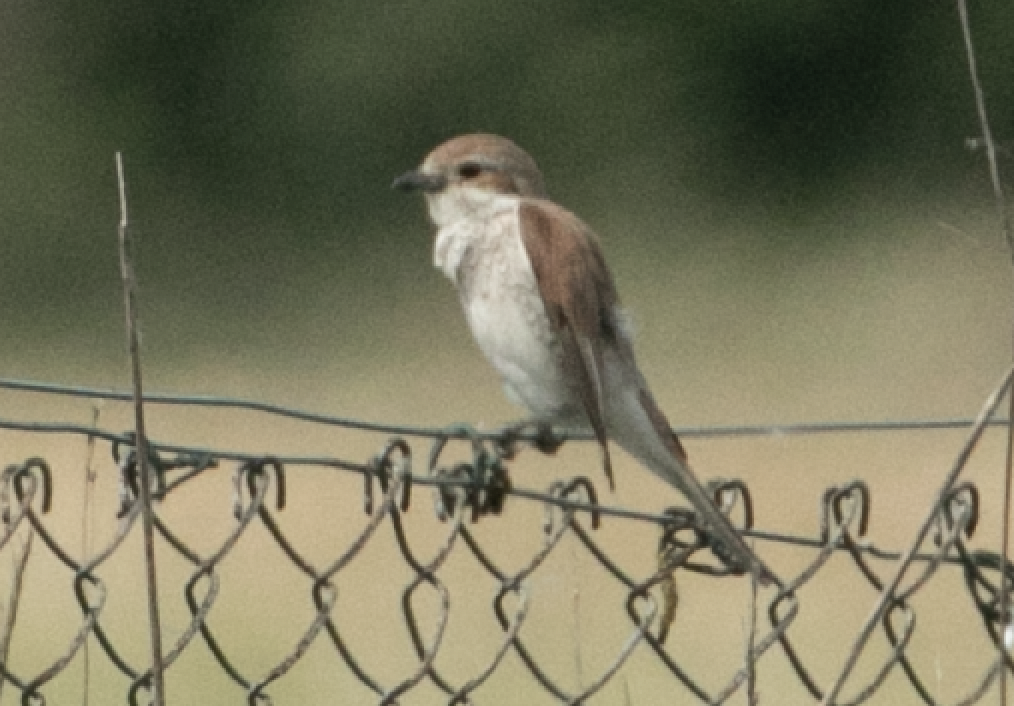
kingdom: Animalia
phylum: Chordata
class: Aves
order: Passeriformes
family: Laniidae
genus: Lanius
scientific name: Lanius collurio
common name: Red-backed shrike
